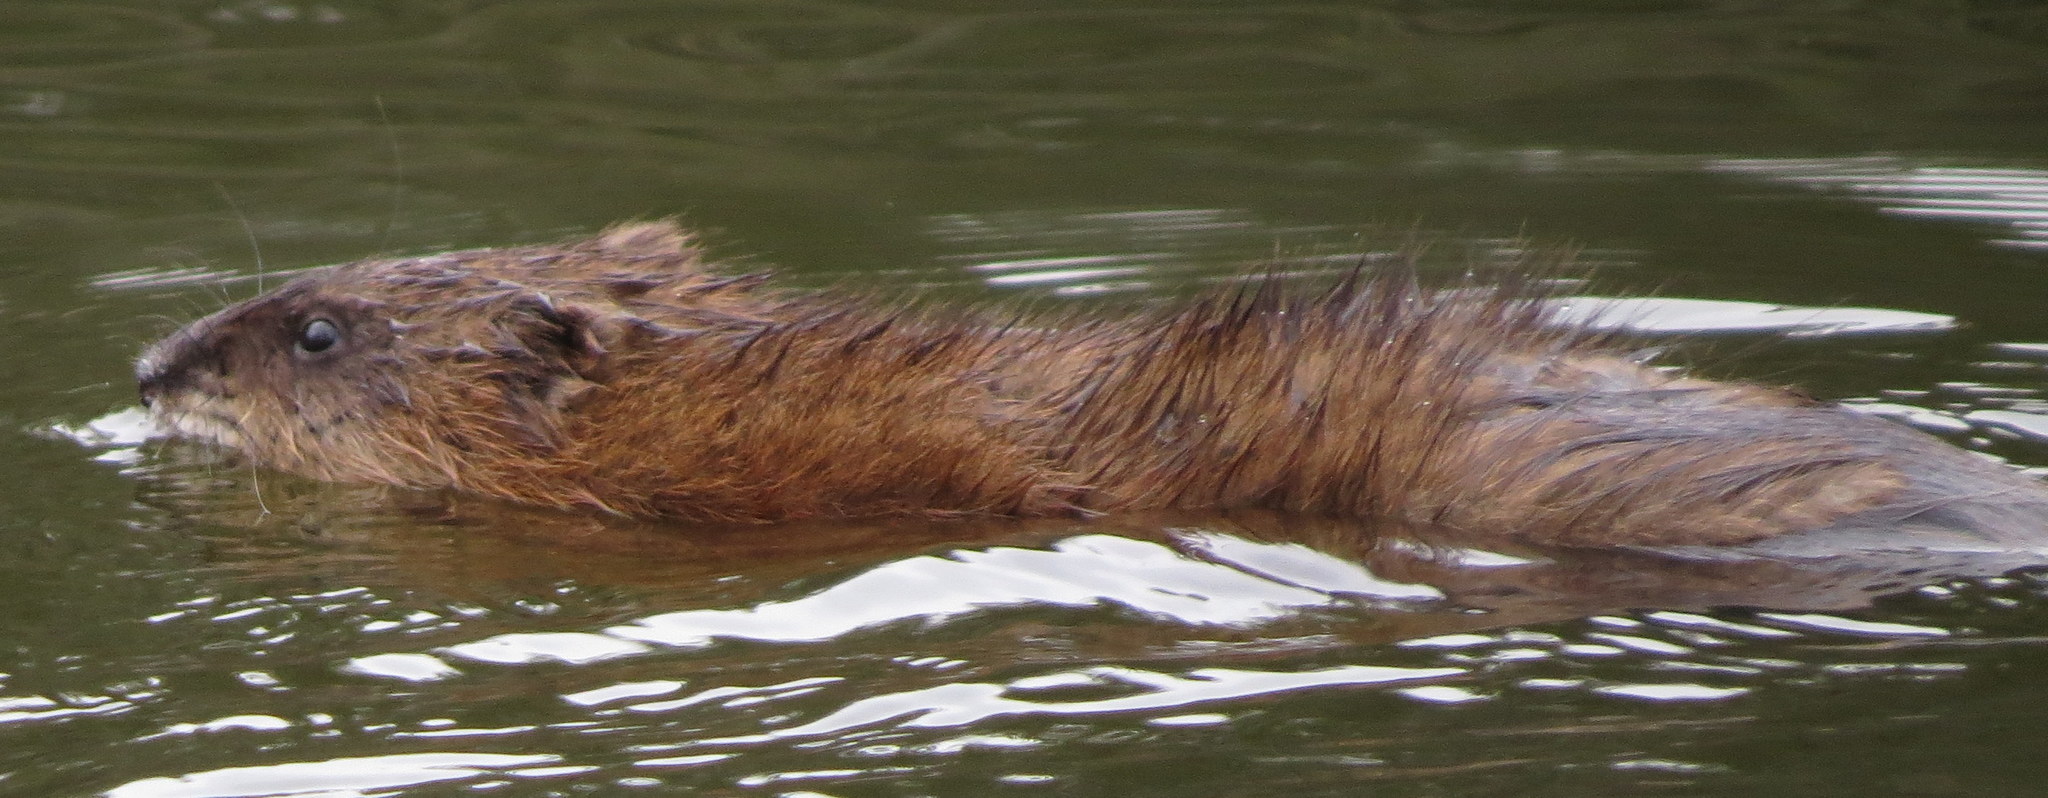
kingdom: Animalia
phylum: Chordata
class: Mammalia
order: Rodentia
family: Cricetidae
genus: Ondatra
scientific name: Ondatra zibethicus
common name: Muskrat
